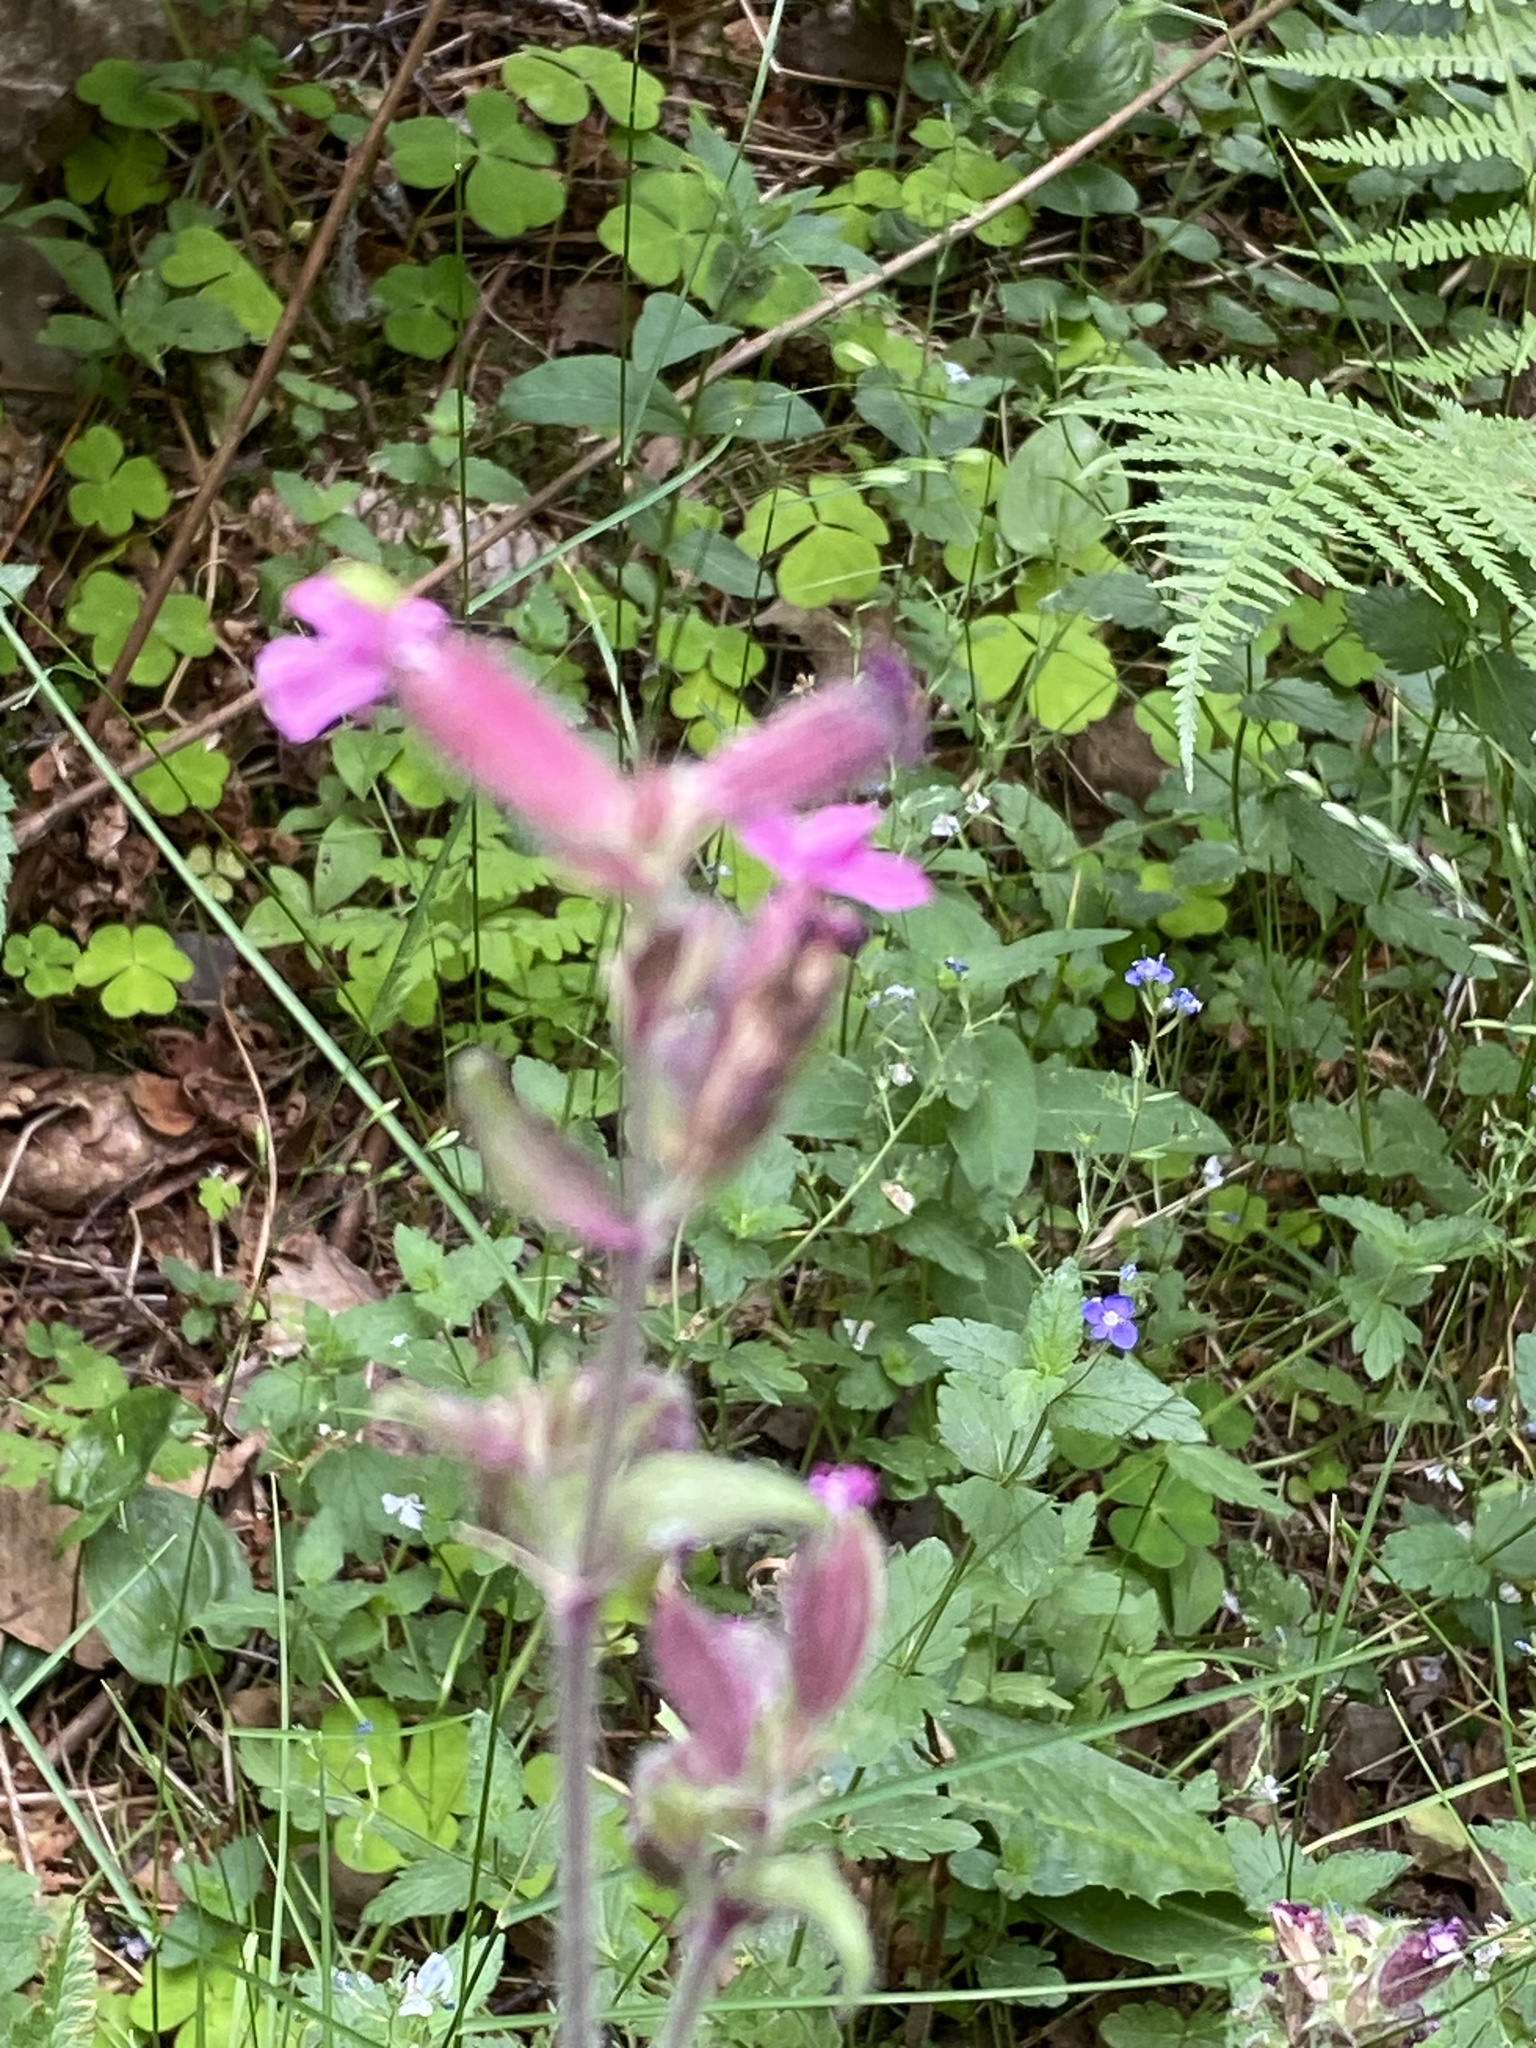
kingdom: Plantae
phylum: Tracheophyta
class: Magnoliopsida
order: Caryophyllales
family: Caryophyllaceae
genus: Silene
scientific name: Silene dioica
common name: Red campion
